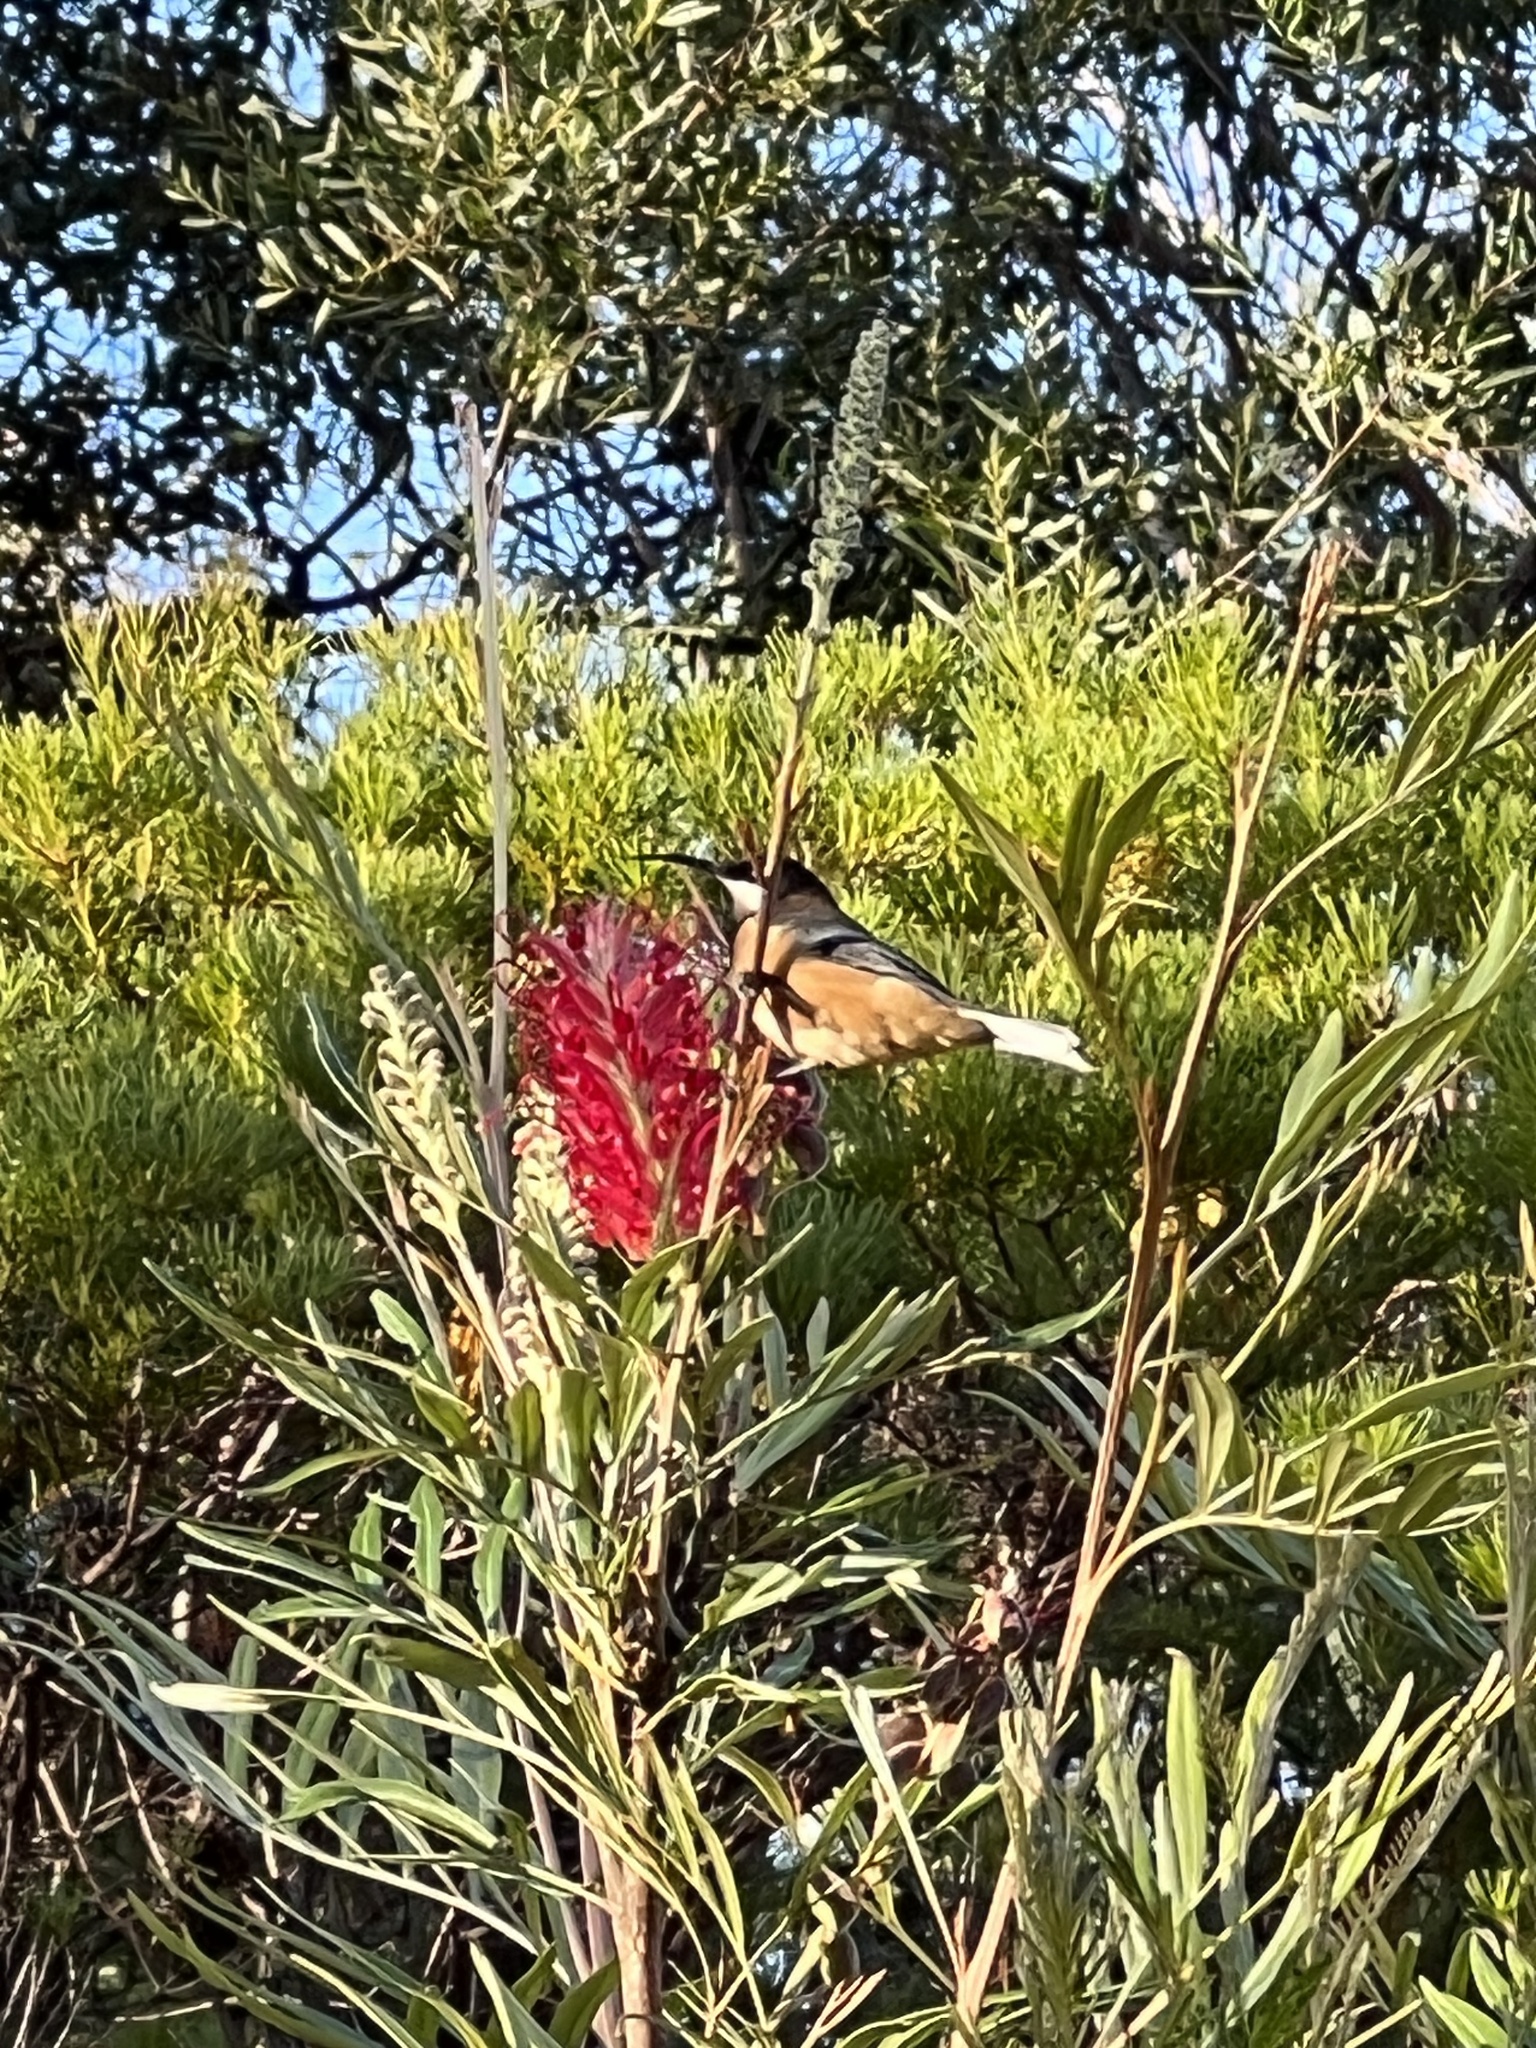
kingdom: Animalia
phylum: Chordata
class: Aves
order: Passeriformes
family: Meliphagidae
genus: Acanthorhynchus
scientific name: Acanthorhynchus tenuirostris
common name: Eastern spinebill
